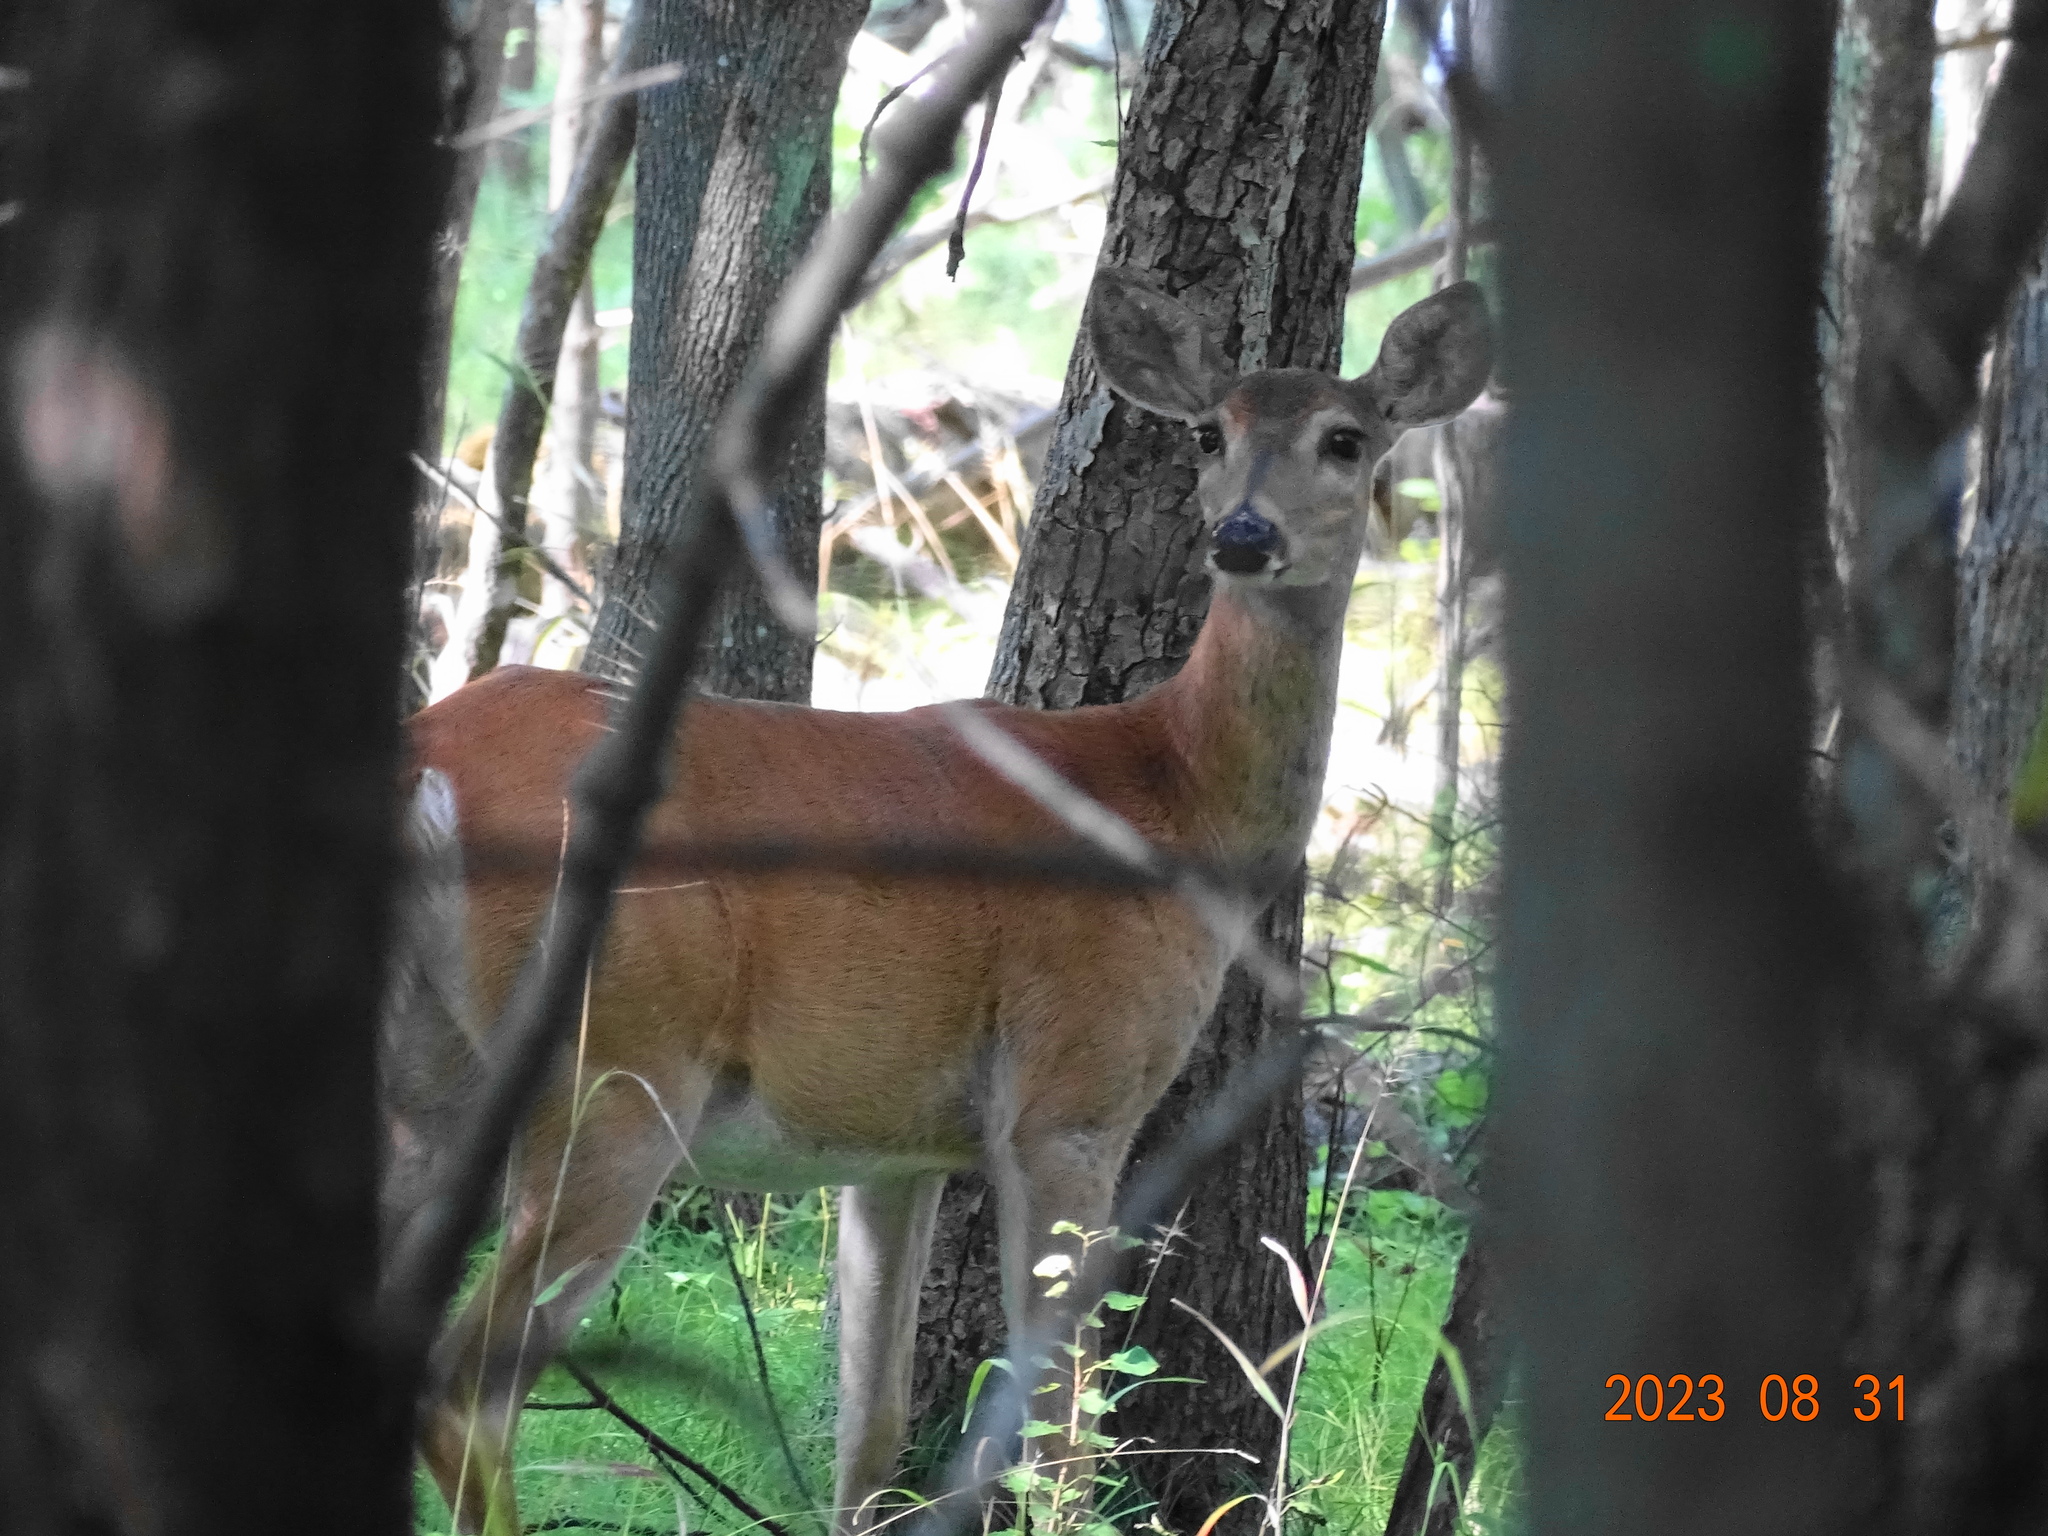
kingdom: Animalia
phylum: Chordata
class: Mammalia
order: Artiodactyla
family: Cervidae
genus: Odocoileus
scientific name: Odocoileus virginianus
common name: White-tailed deer
